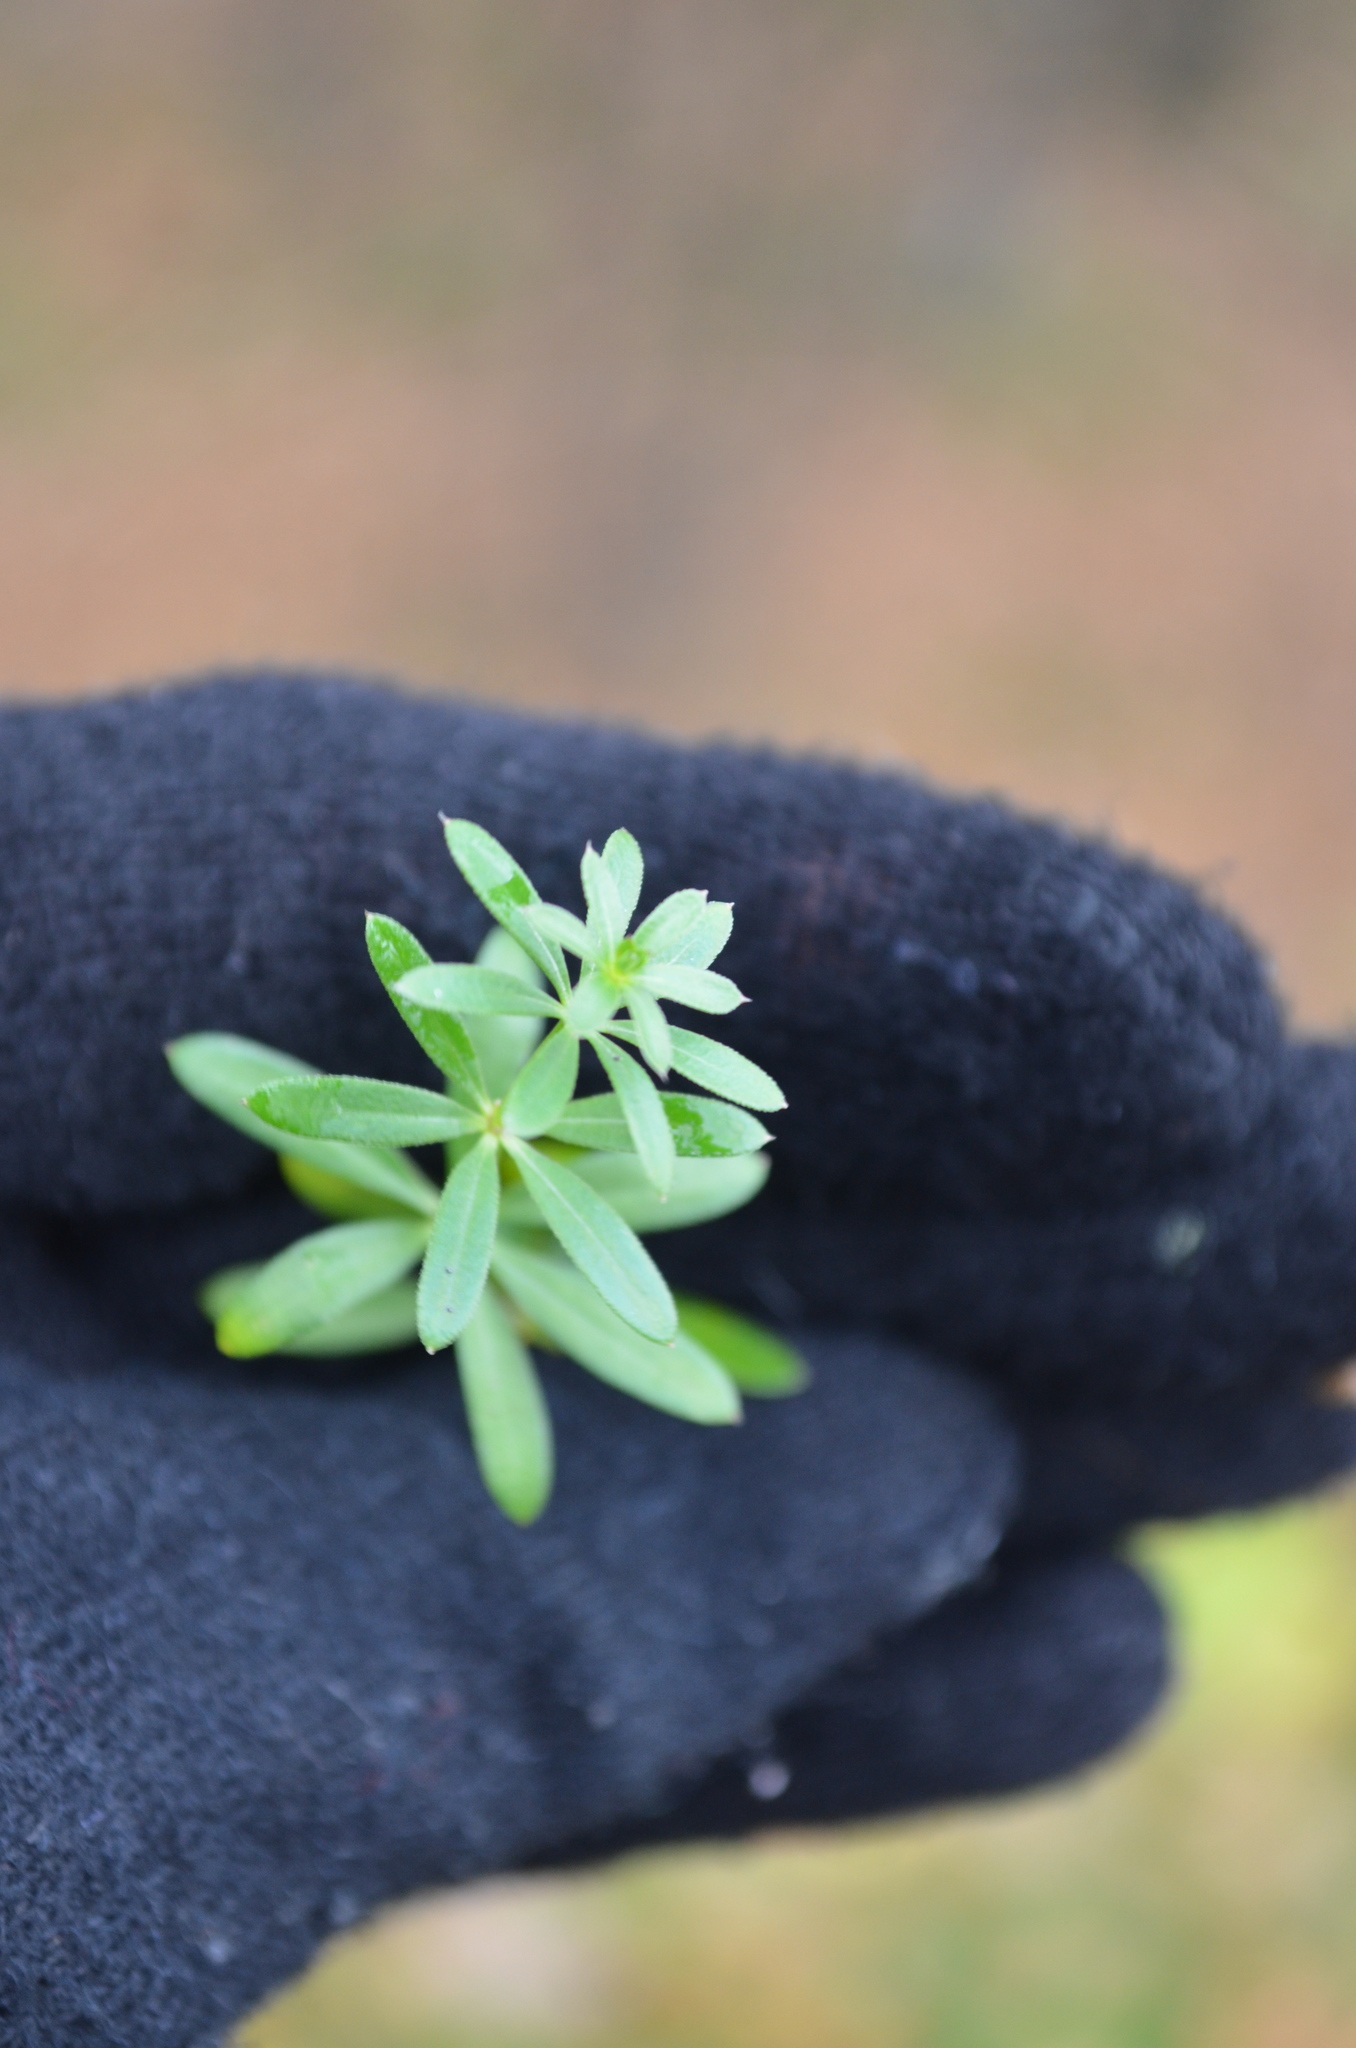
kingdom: Plantae
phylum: Tracheophyta
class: Magnoliopsida
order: Gentianales
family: Rubiaceae
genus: Galium
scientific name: Galium mollugo
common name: Hedge bedstraw
